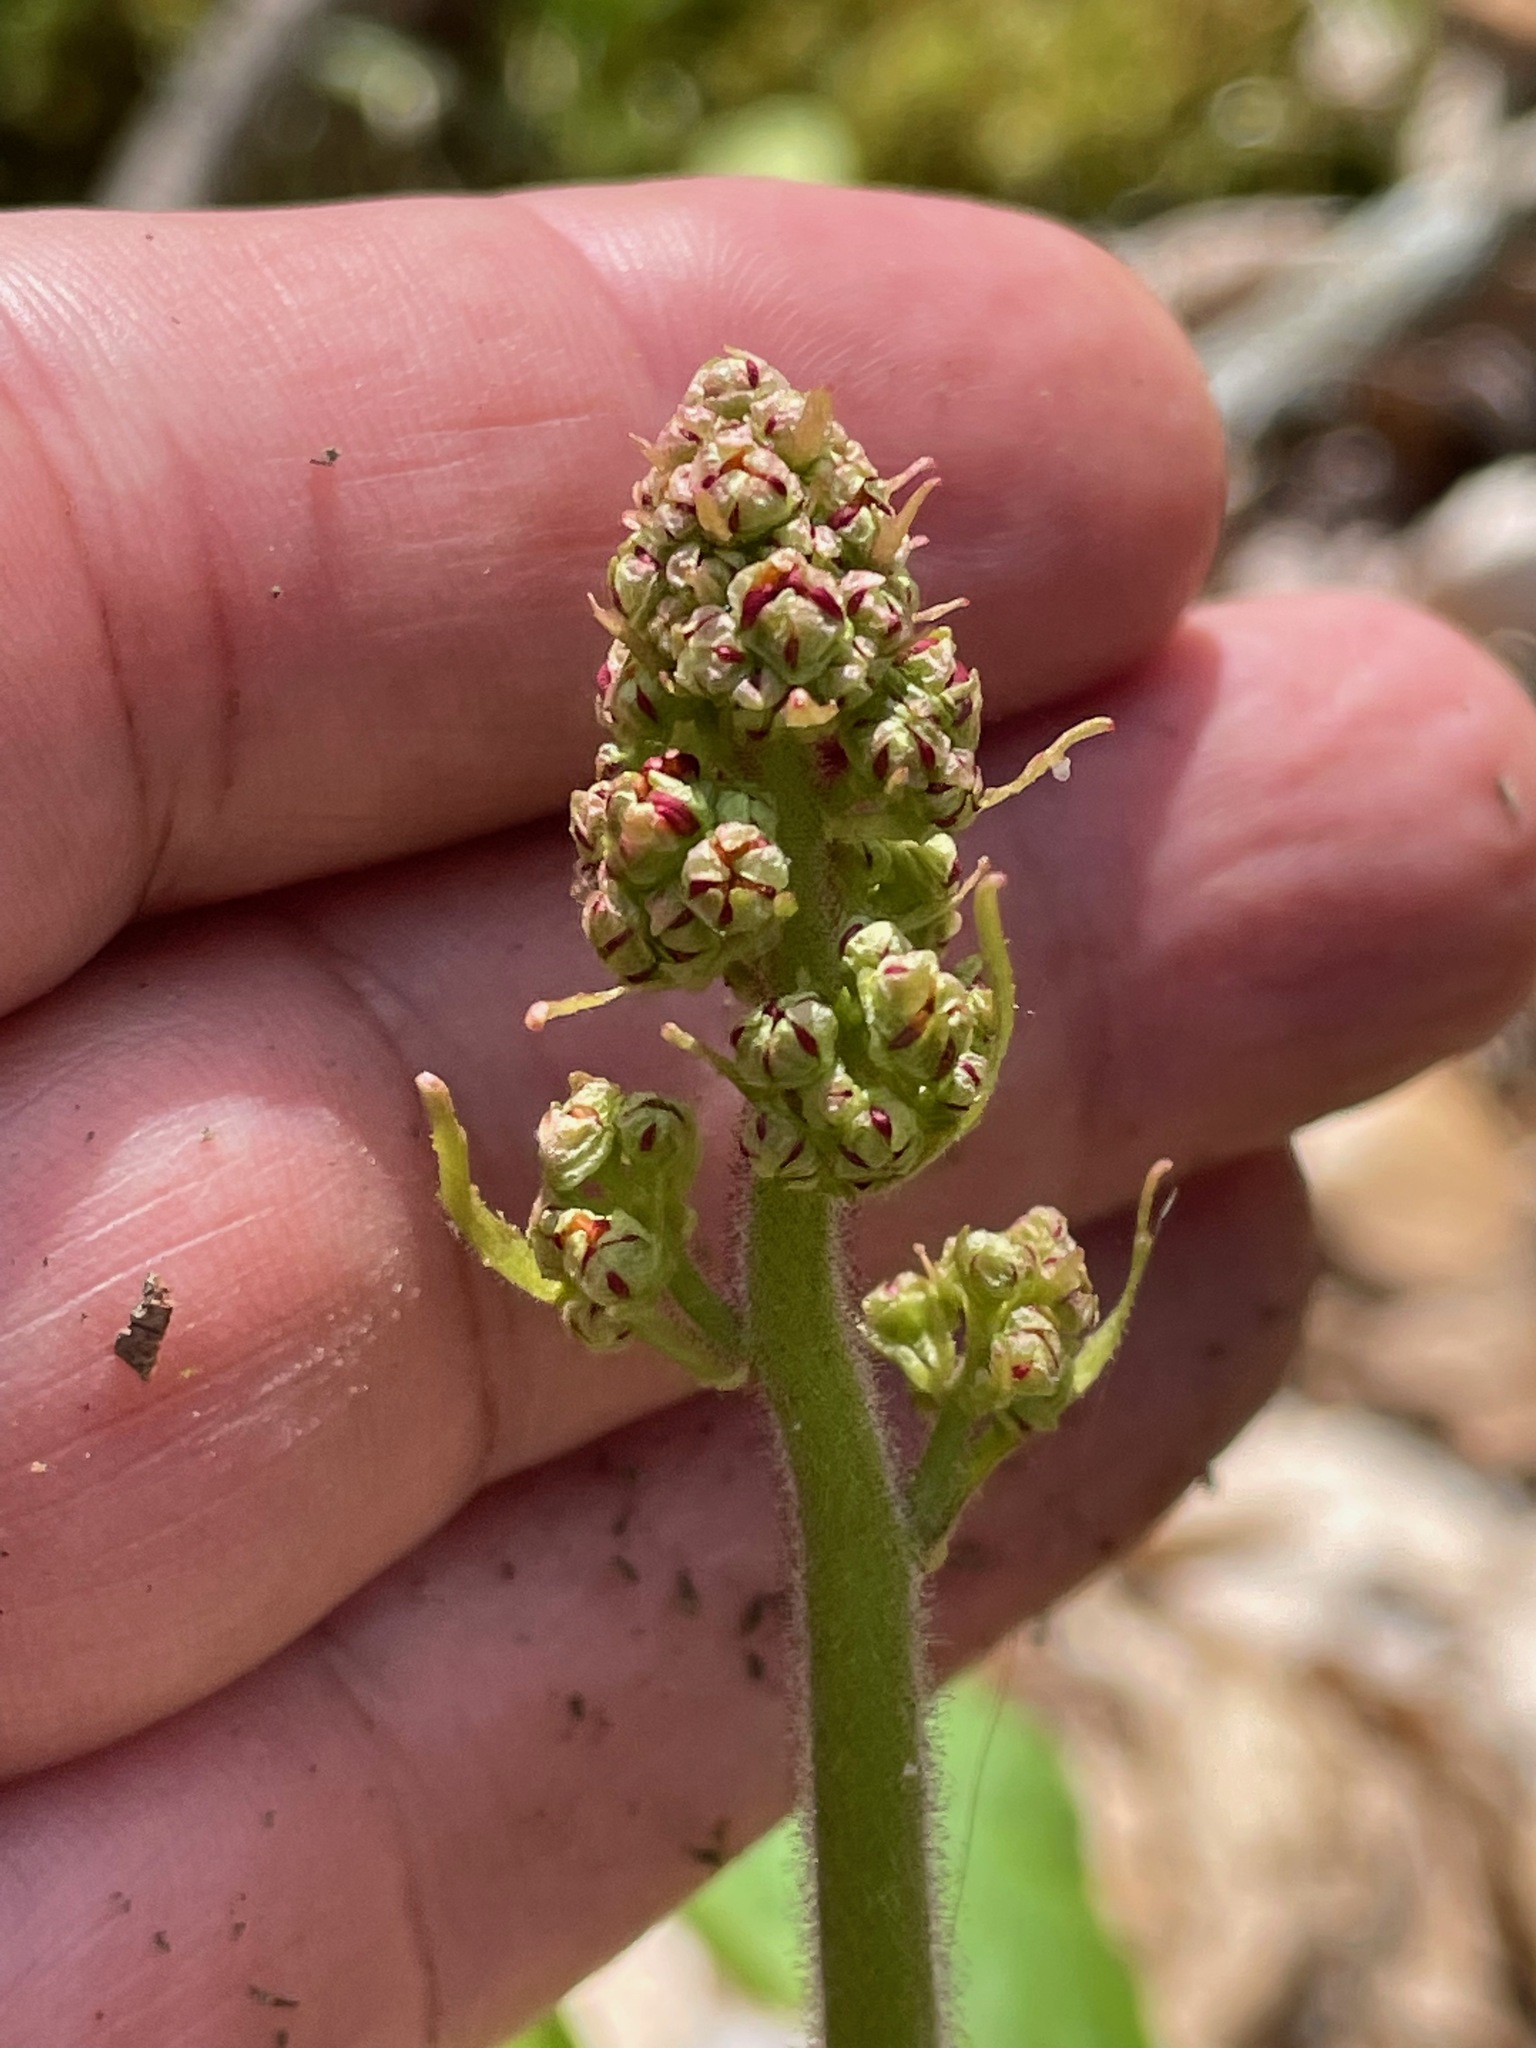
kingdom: Plantae
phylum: Tracheophyta
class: Magnoliopsida
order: Saxifragales
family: Saxifragaceae
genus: Micranthes
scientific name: Micranthes pensylvanica
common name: Marsh saxifrage
